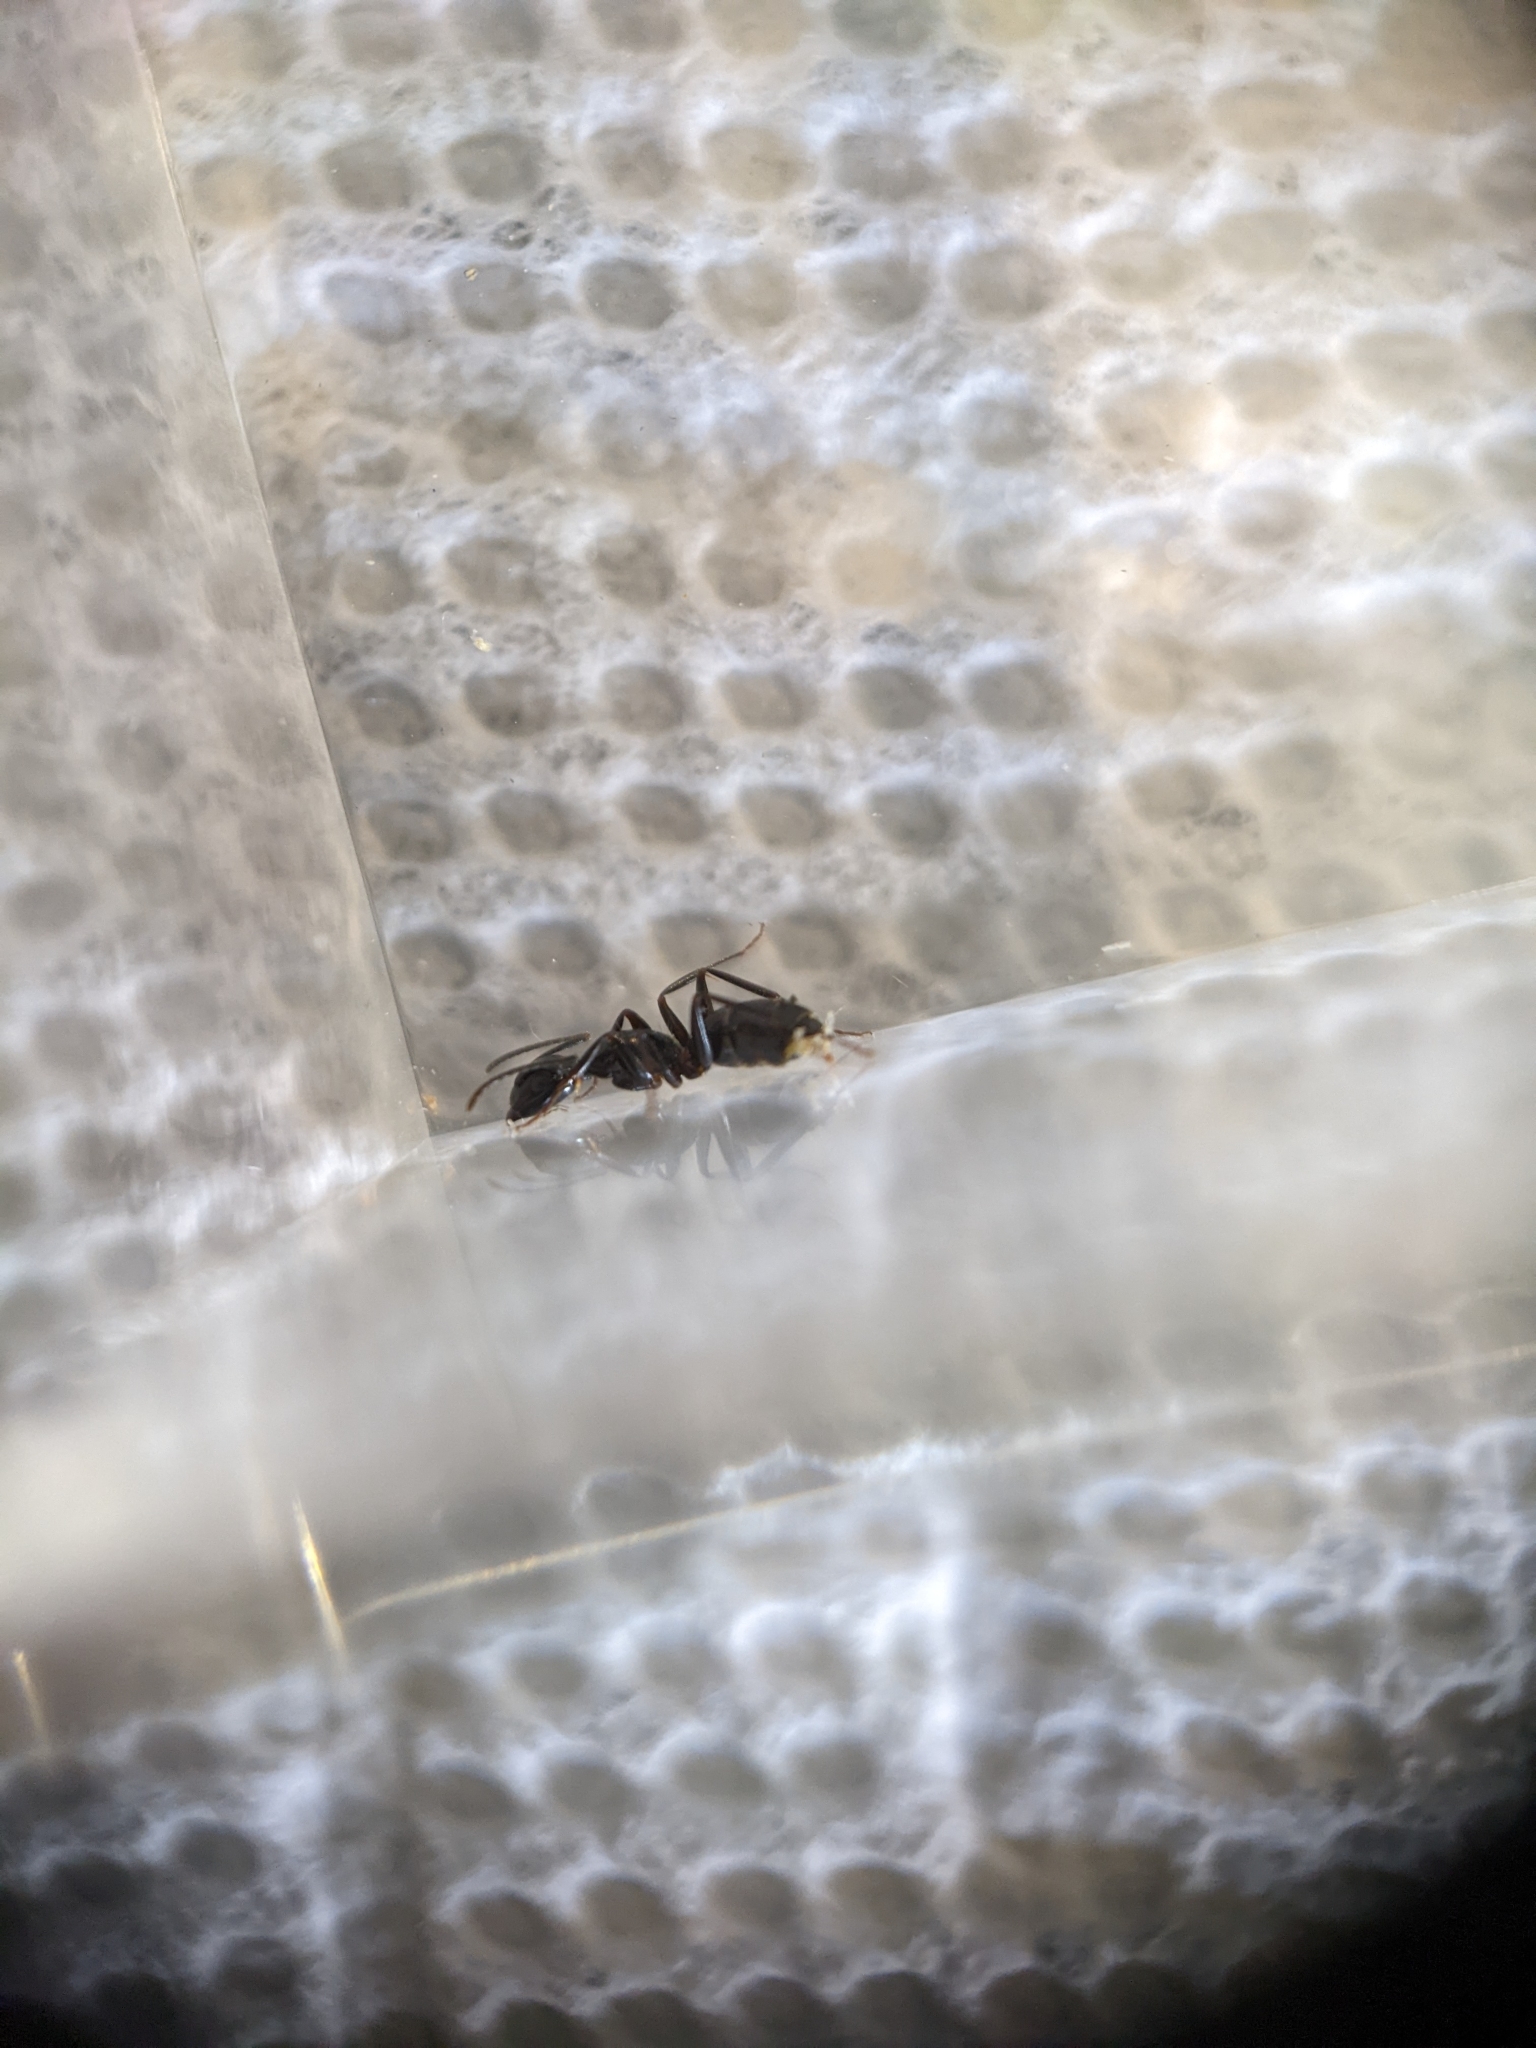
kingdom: Animalia
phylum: Arthropoda
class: Insecta
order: Hymenoptera
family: Formicidae
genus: Camponotus
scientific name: Camponotus nearcticus
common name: Smaller carpenter ant
